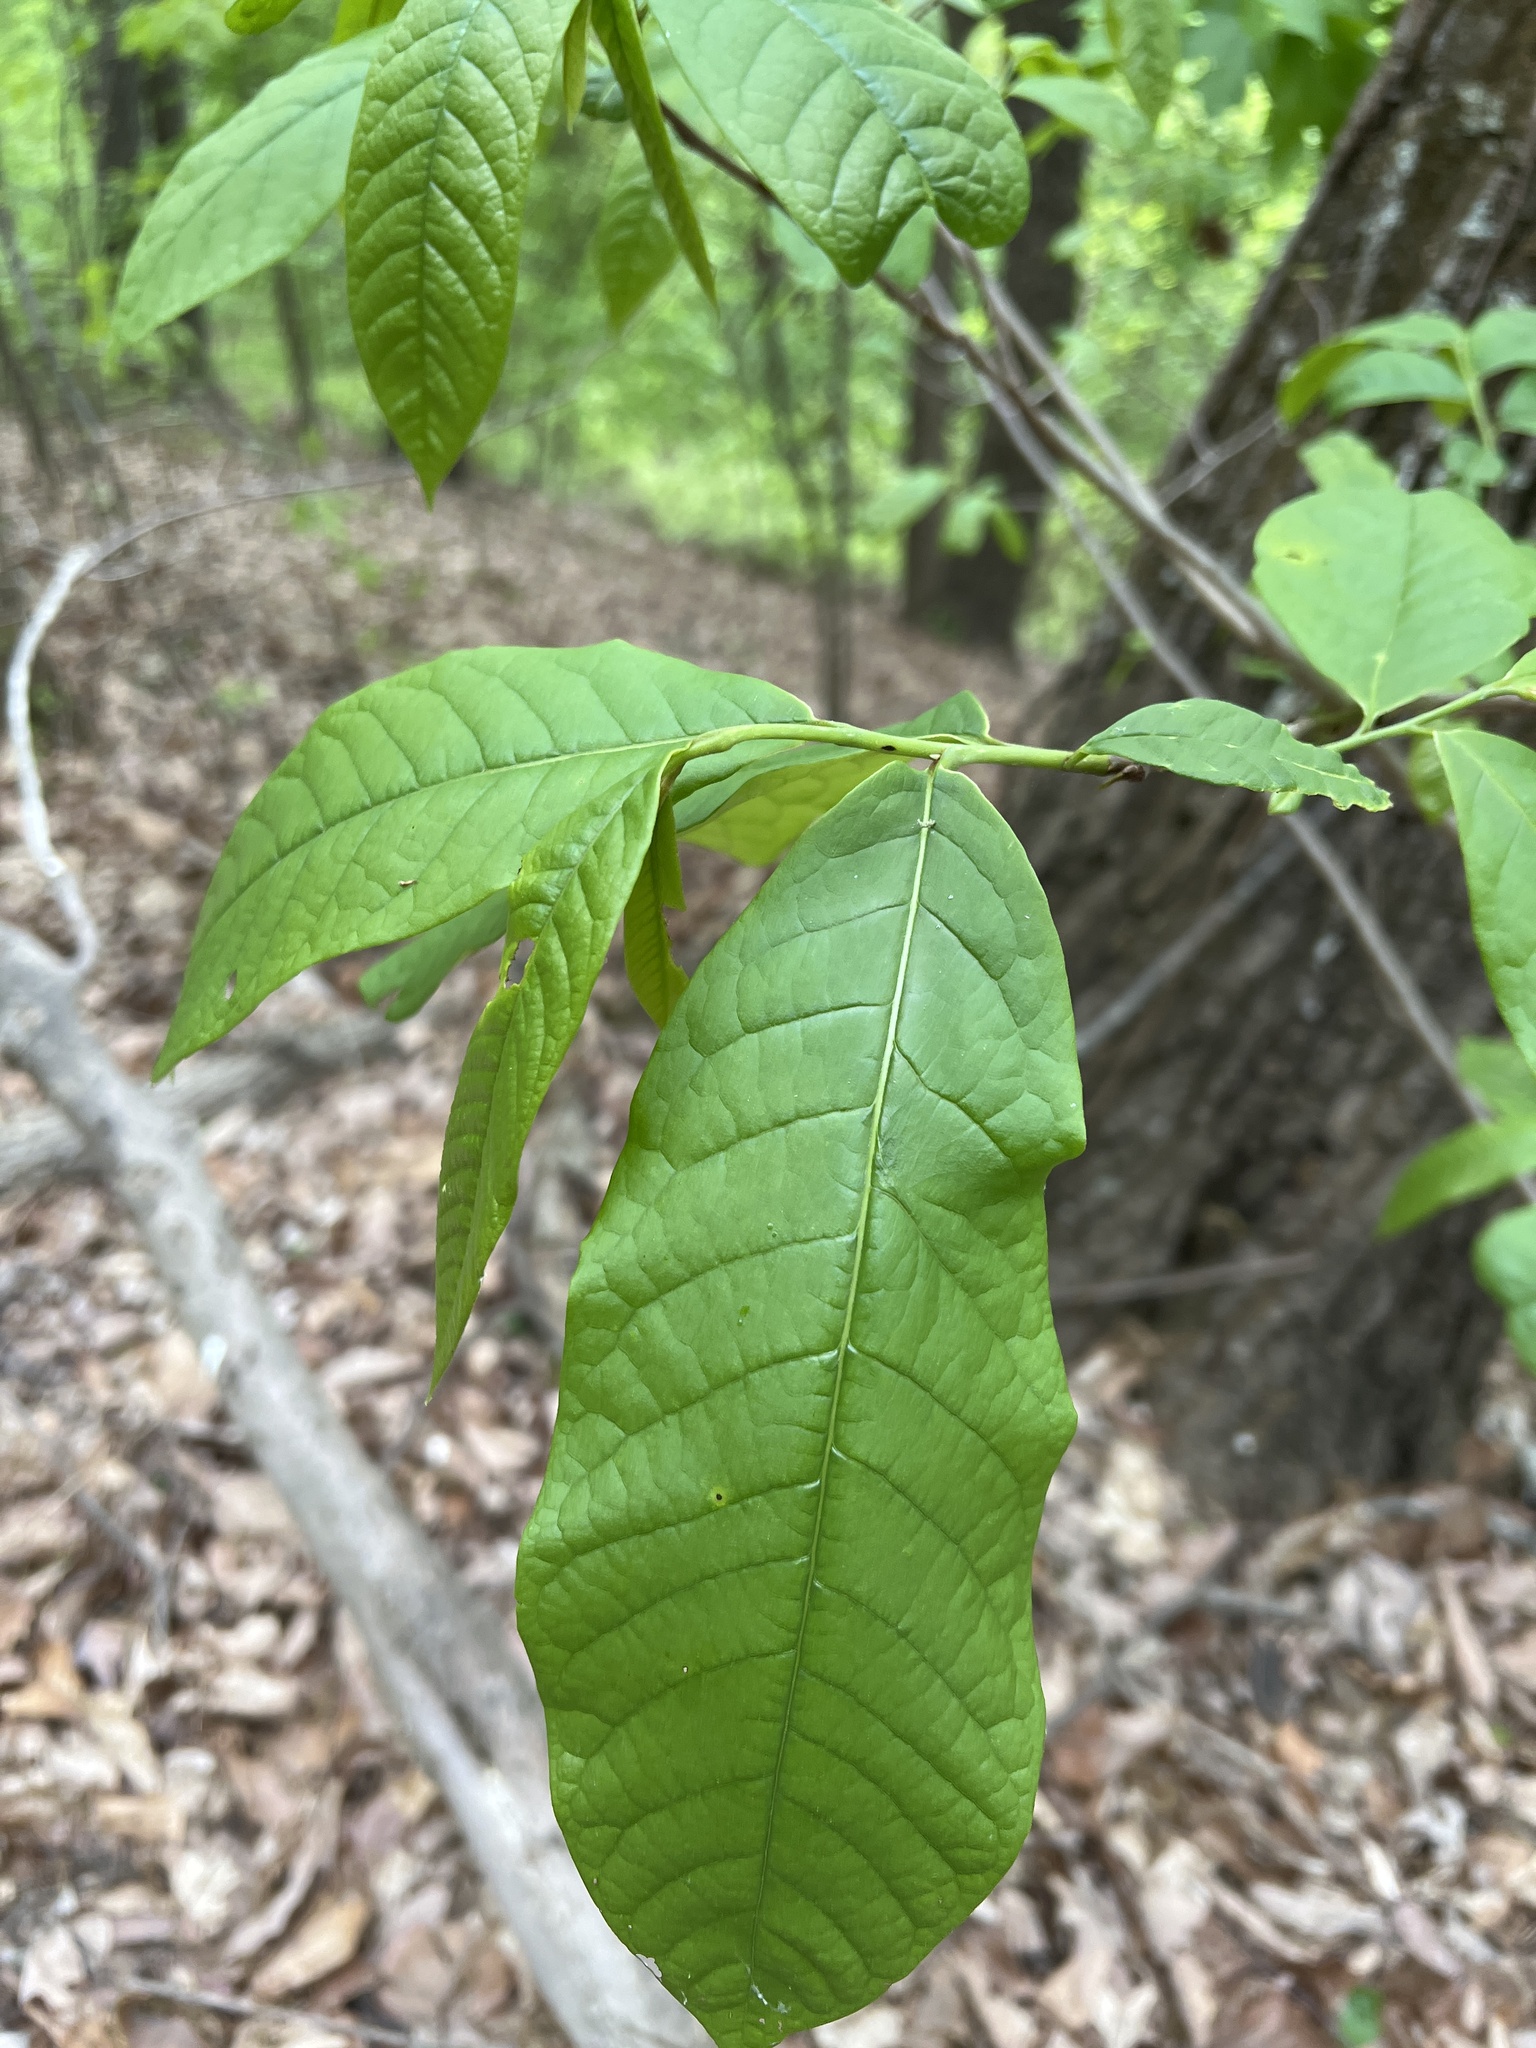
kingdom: Plantae
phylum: Tracheophyta
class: Magnoliopsida
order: Magnoliales
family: Annonaceae
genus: Asimina
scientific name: Asimina triloba
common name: Dog-banana
